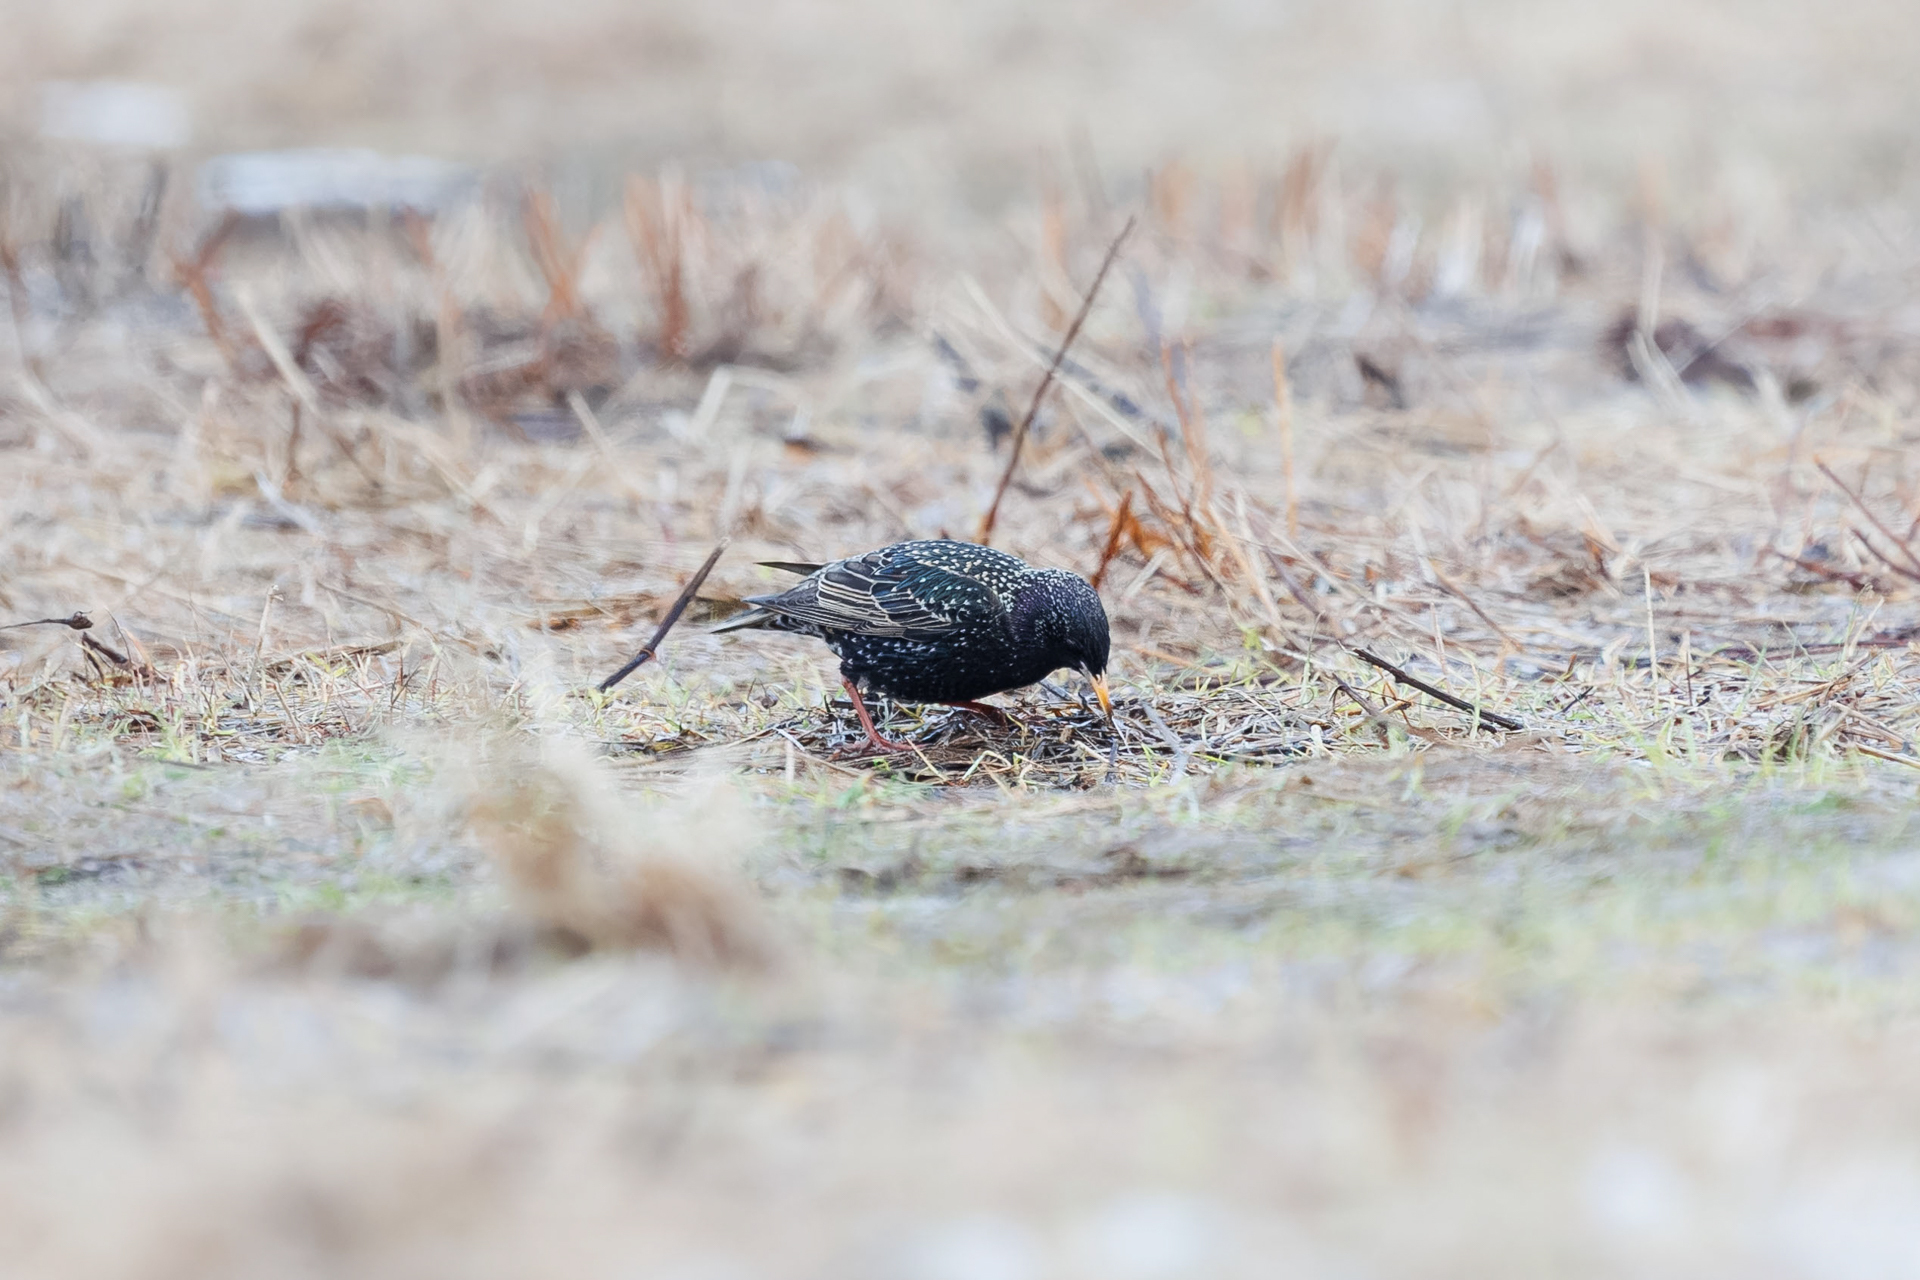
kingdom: Animalia
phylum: Chordata
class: Aves
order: Passeriformes
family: Sturnidae
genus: Sturnus
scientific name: Sturnus vulgaris
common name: Common starling
